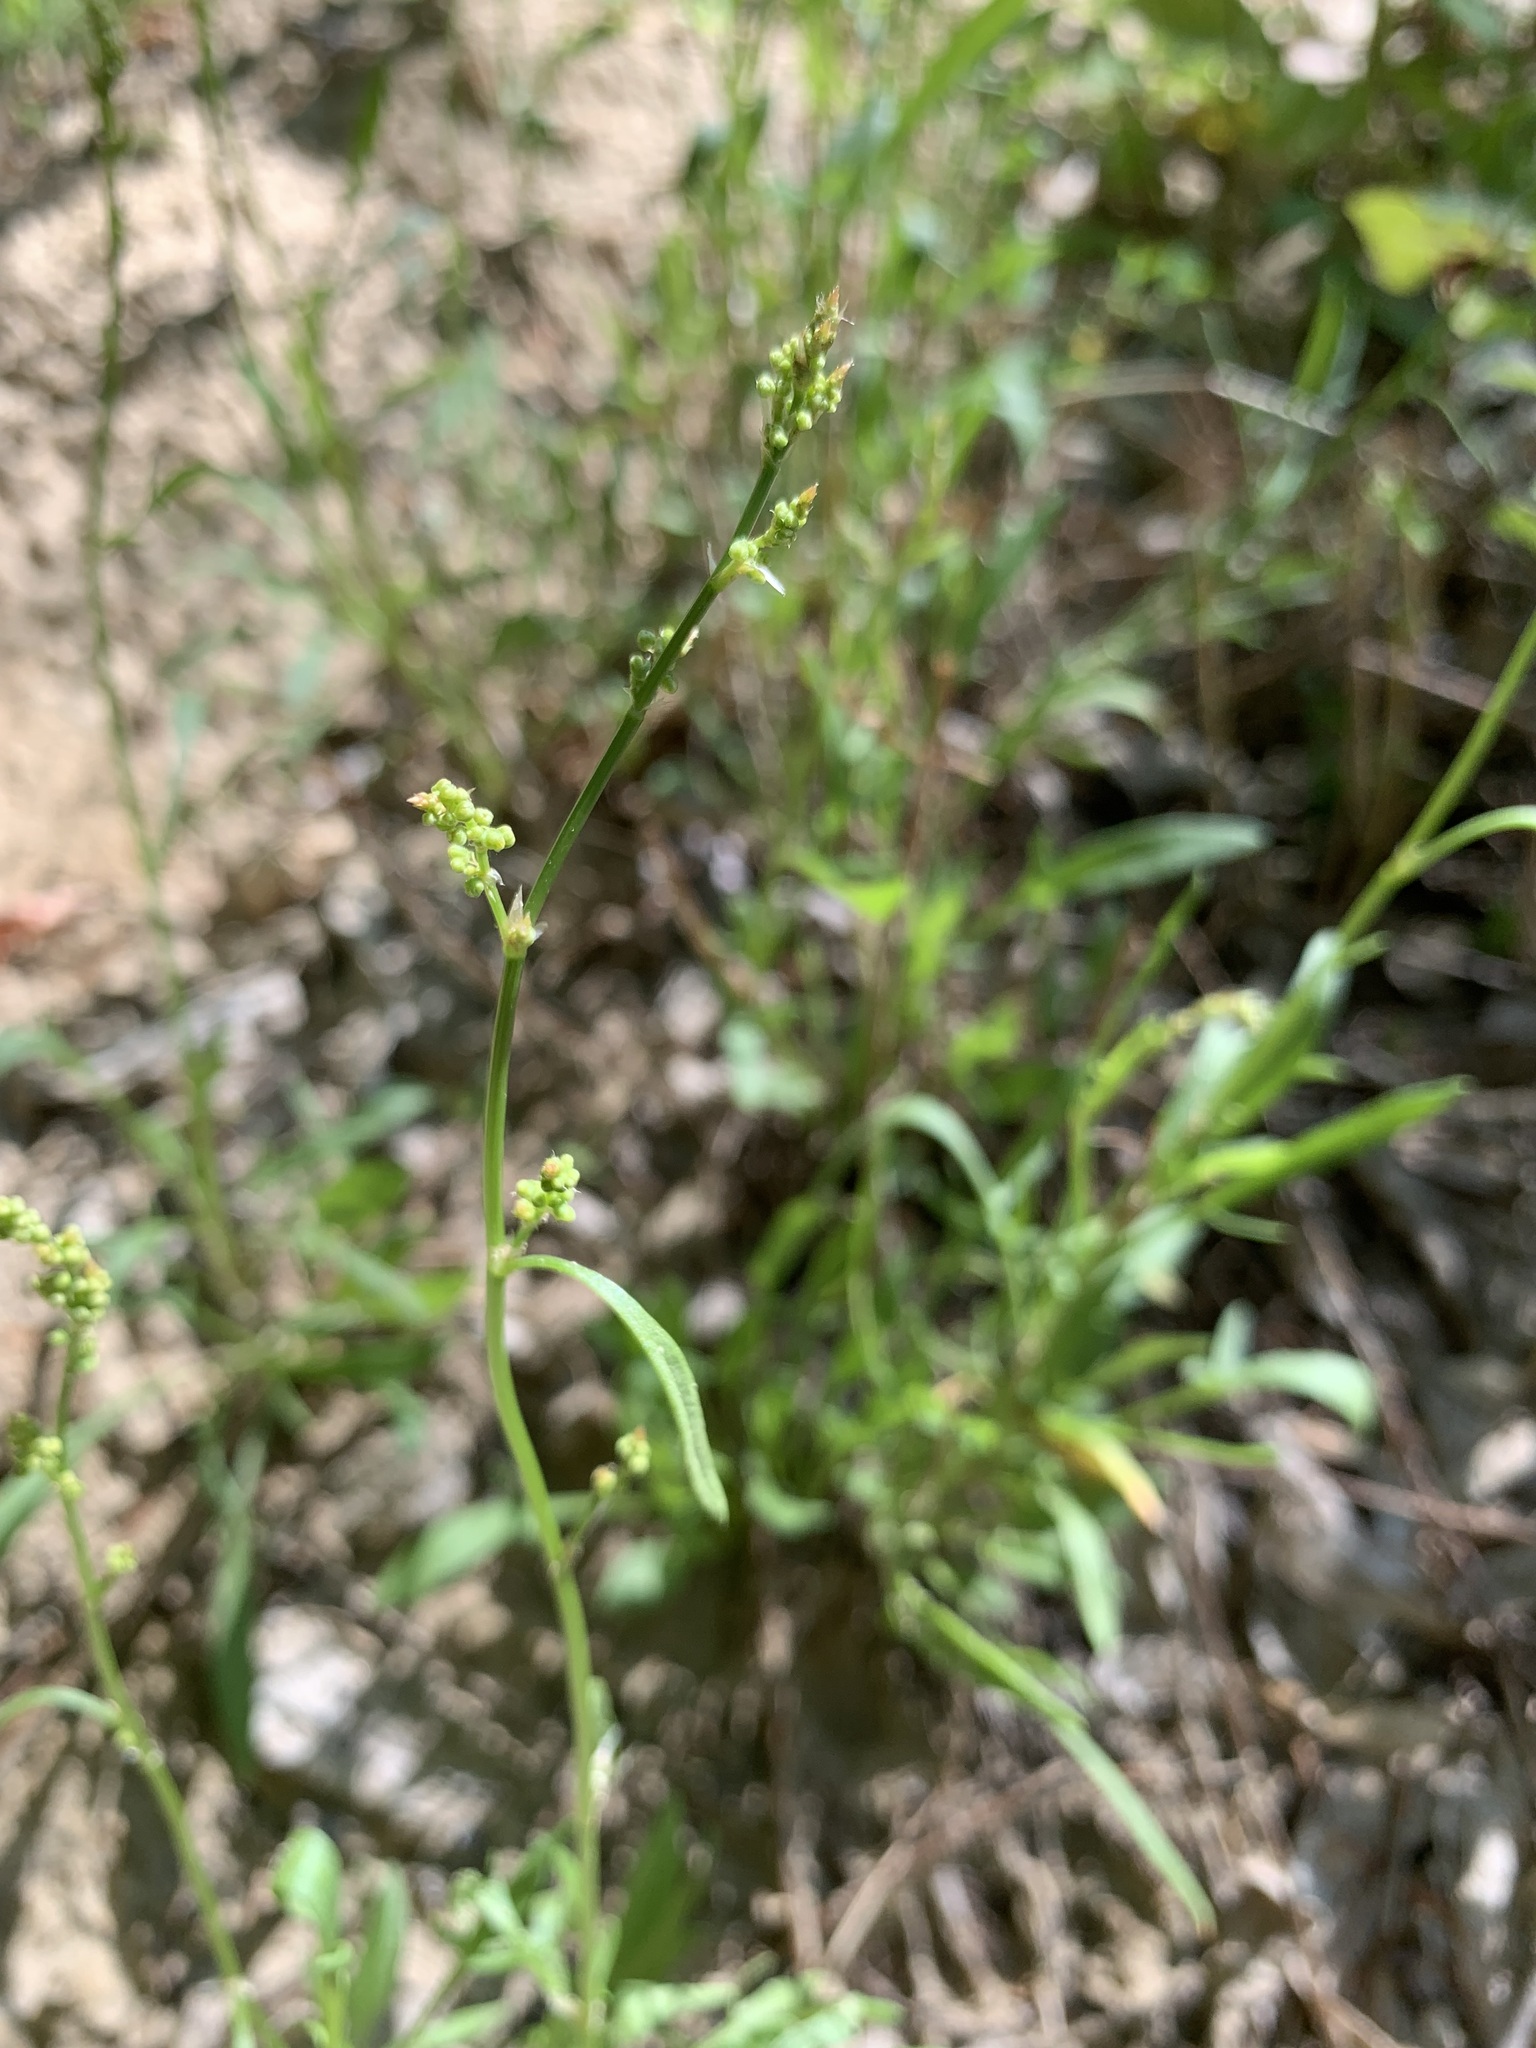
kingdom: Plantae
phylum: Tracheophyta
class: Magnoliopsida
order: Caryophyllales
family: Polygonaceae
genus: Rumex
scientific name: Rumex acetosella
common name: Common sheep sorrel
